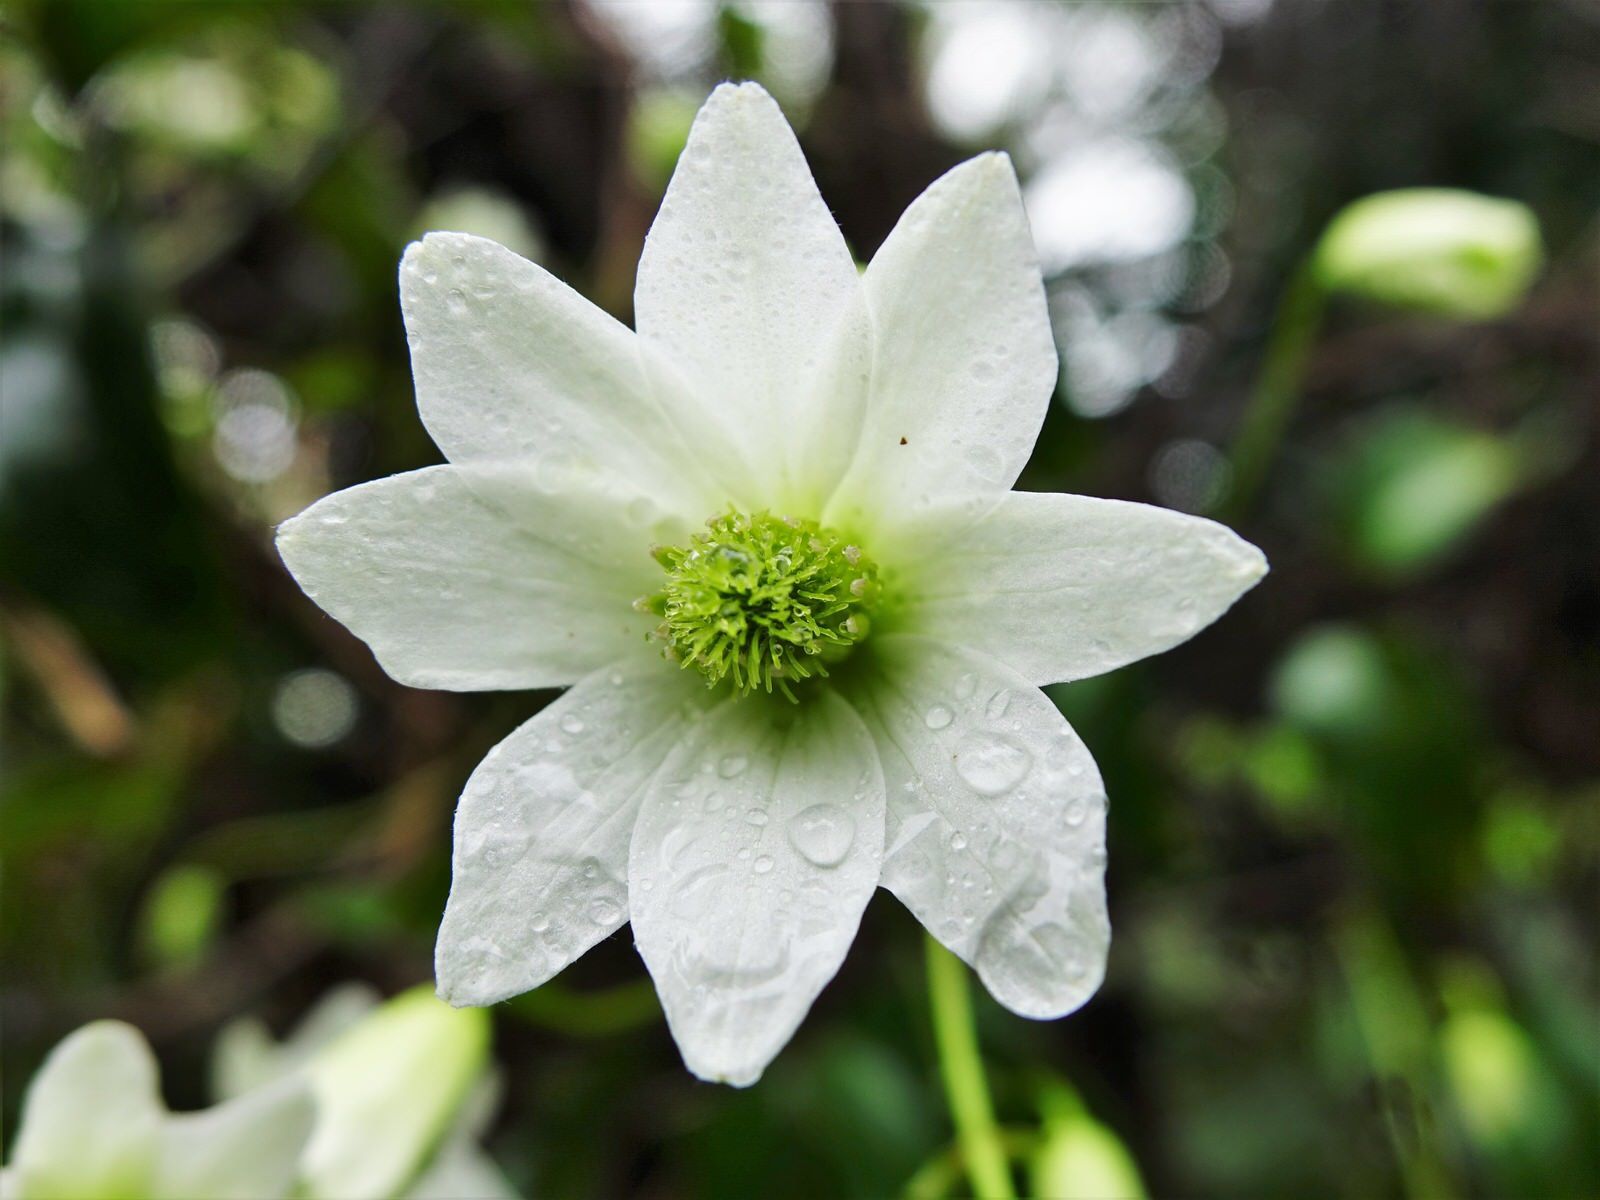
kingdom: Plantae
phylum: Tracheophyta
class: Magnoliopsida
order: Ranunculales
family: Ranunculaceae
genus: Clematis
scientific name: Clematis paniculata
